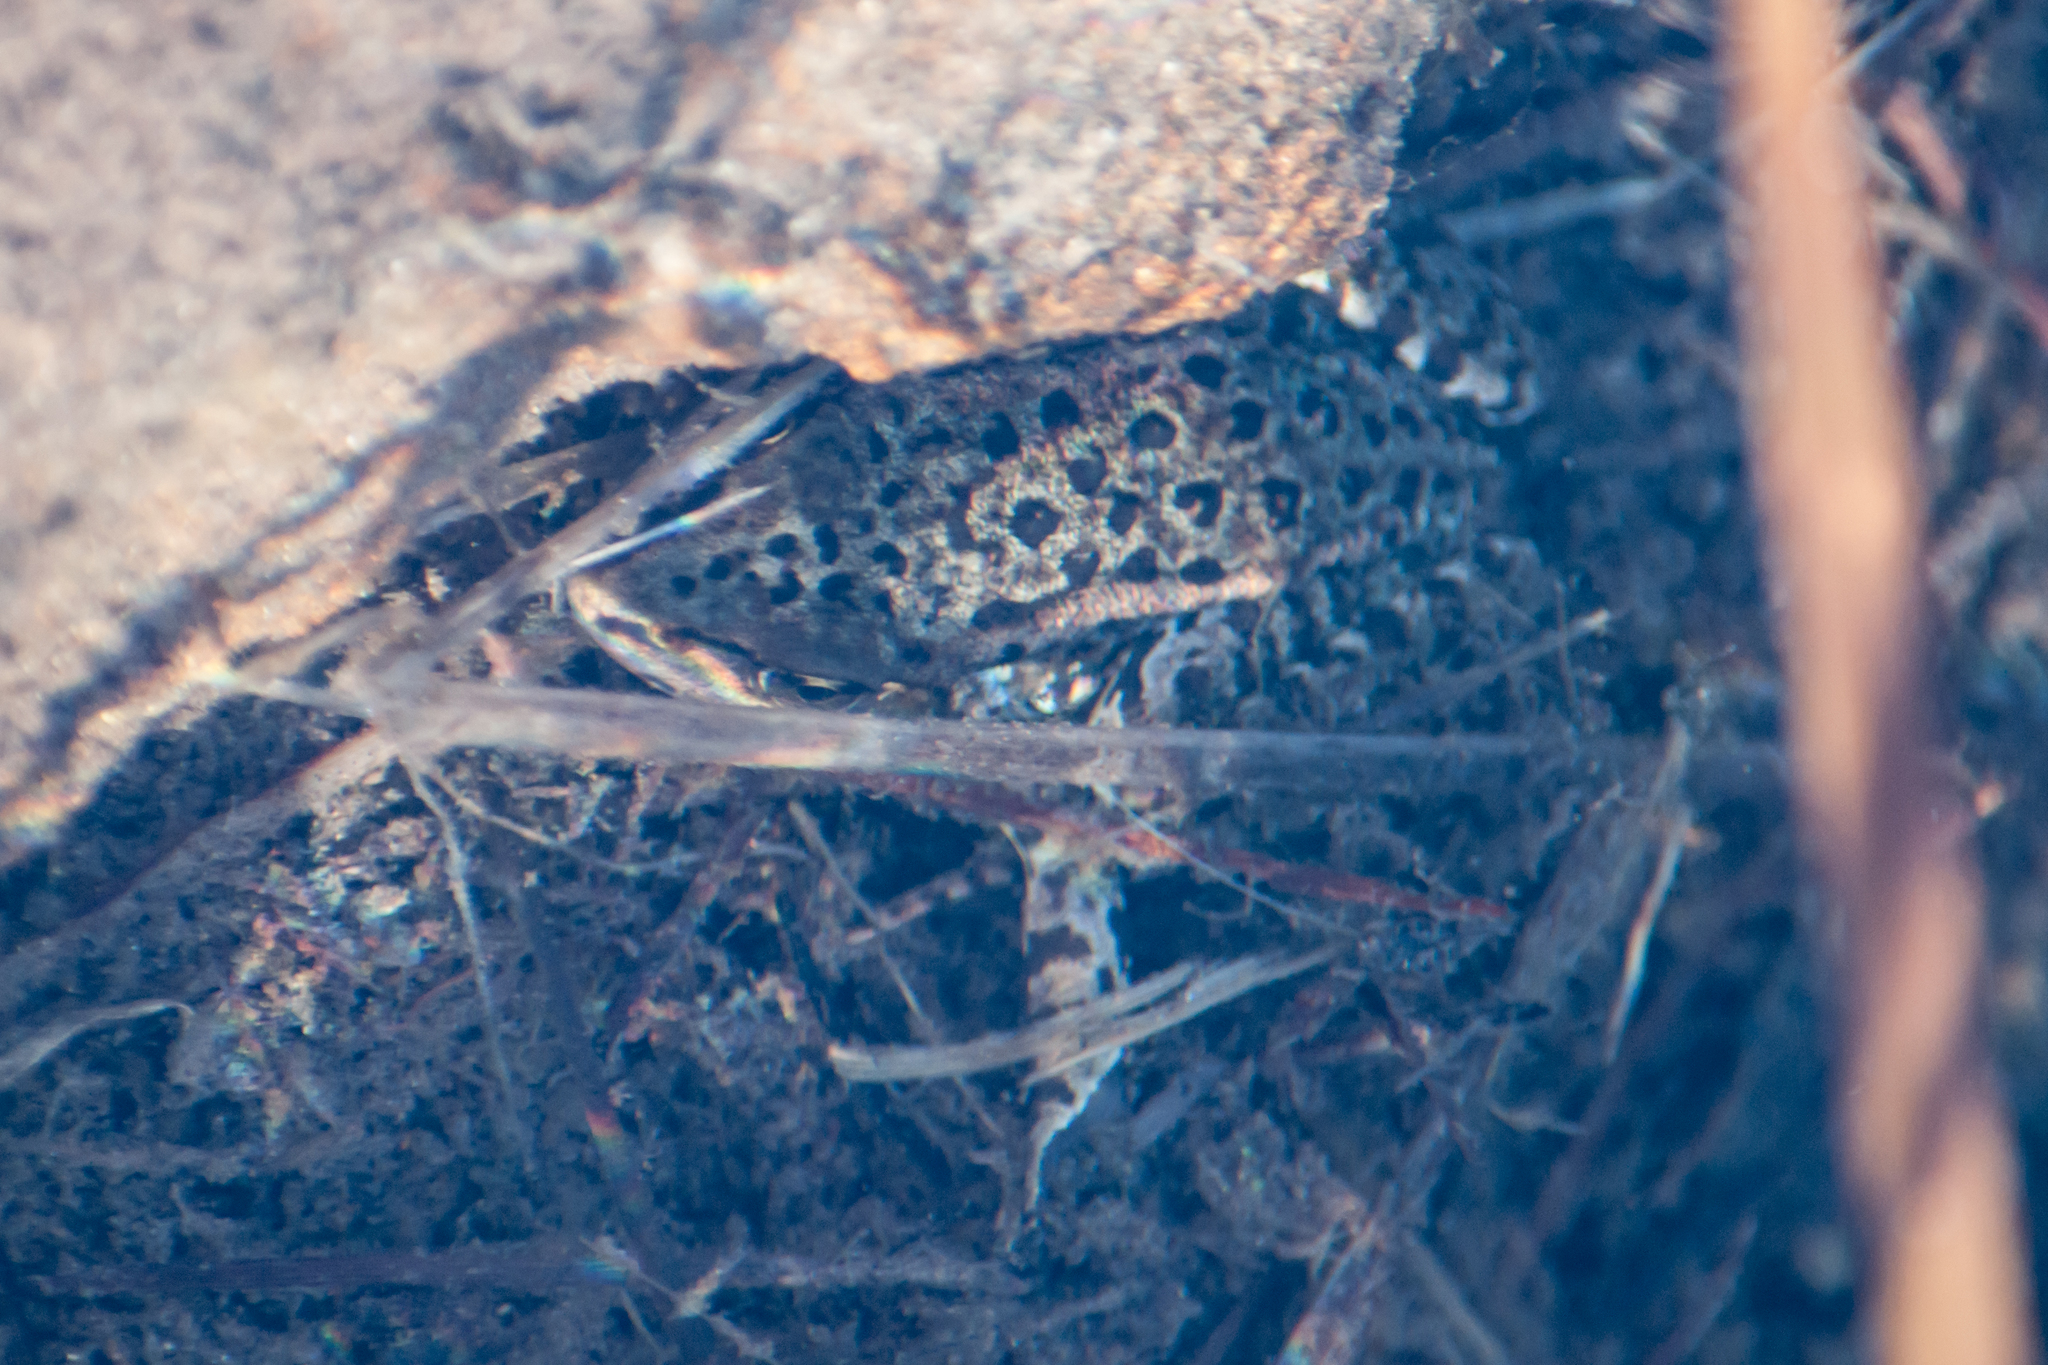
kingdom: Animalia
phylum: Chordata
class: Amphibia
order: Anura
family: Ranidae
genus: Rana
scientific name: Rana cascadae
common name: Cascades frog
